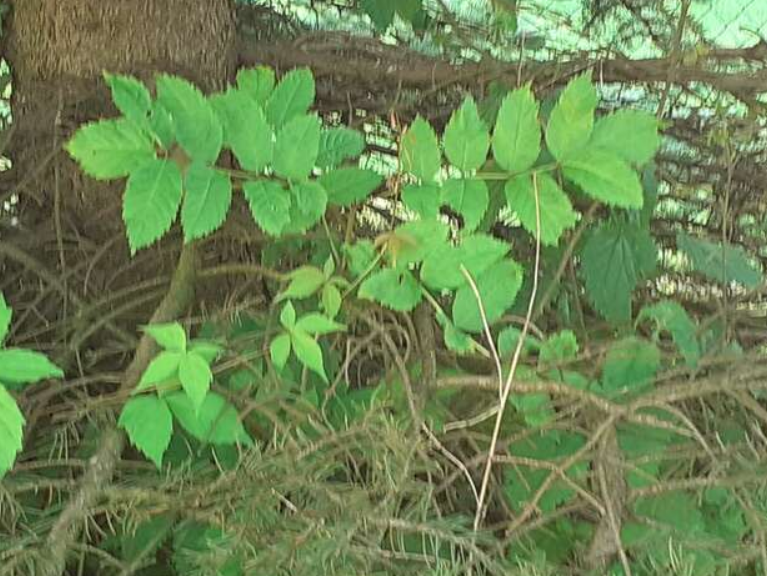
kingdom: Plantae
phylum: Tracheophyta
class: Magnoliopsida
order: Lamiales
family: Oleaceae
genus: Fraxinus
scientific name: Fraxinus excelsior
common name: European ash
